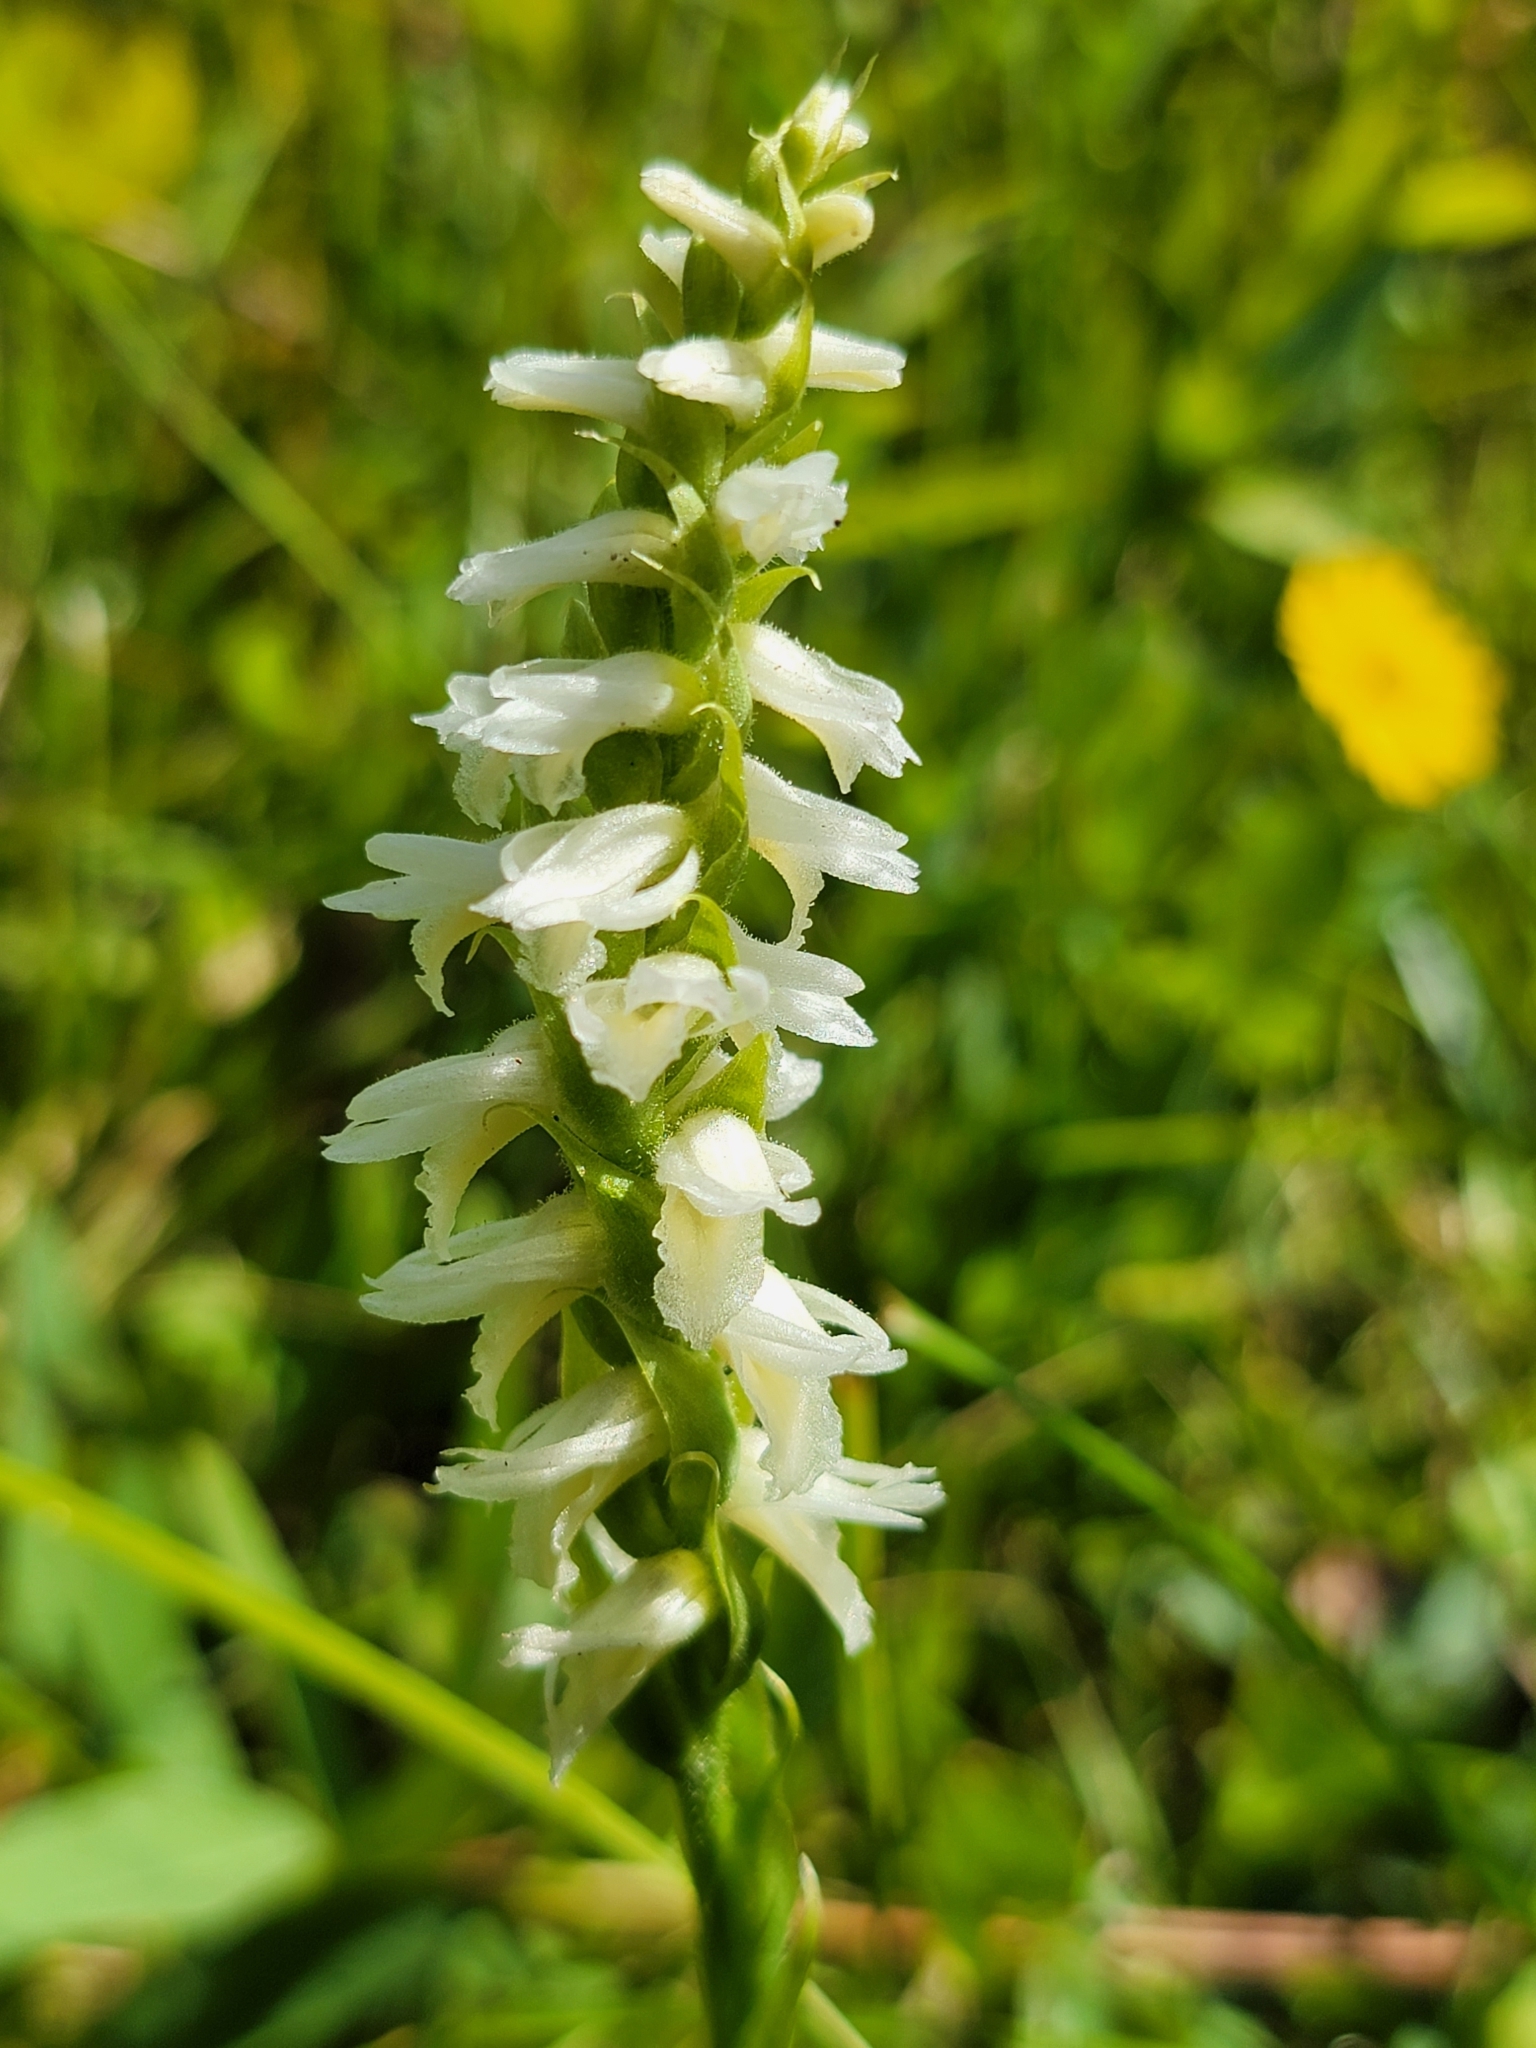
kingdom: Plantae
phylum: Tracheophyta
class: Liliopsida
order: Asparagales
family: Orchidaceae
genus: Spiranthes
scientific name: Spiranthes magnicamporum
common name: Great plains ladies'-tresses
